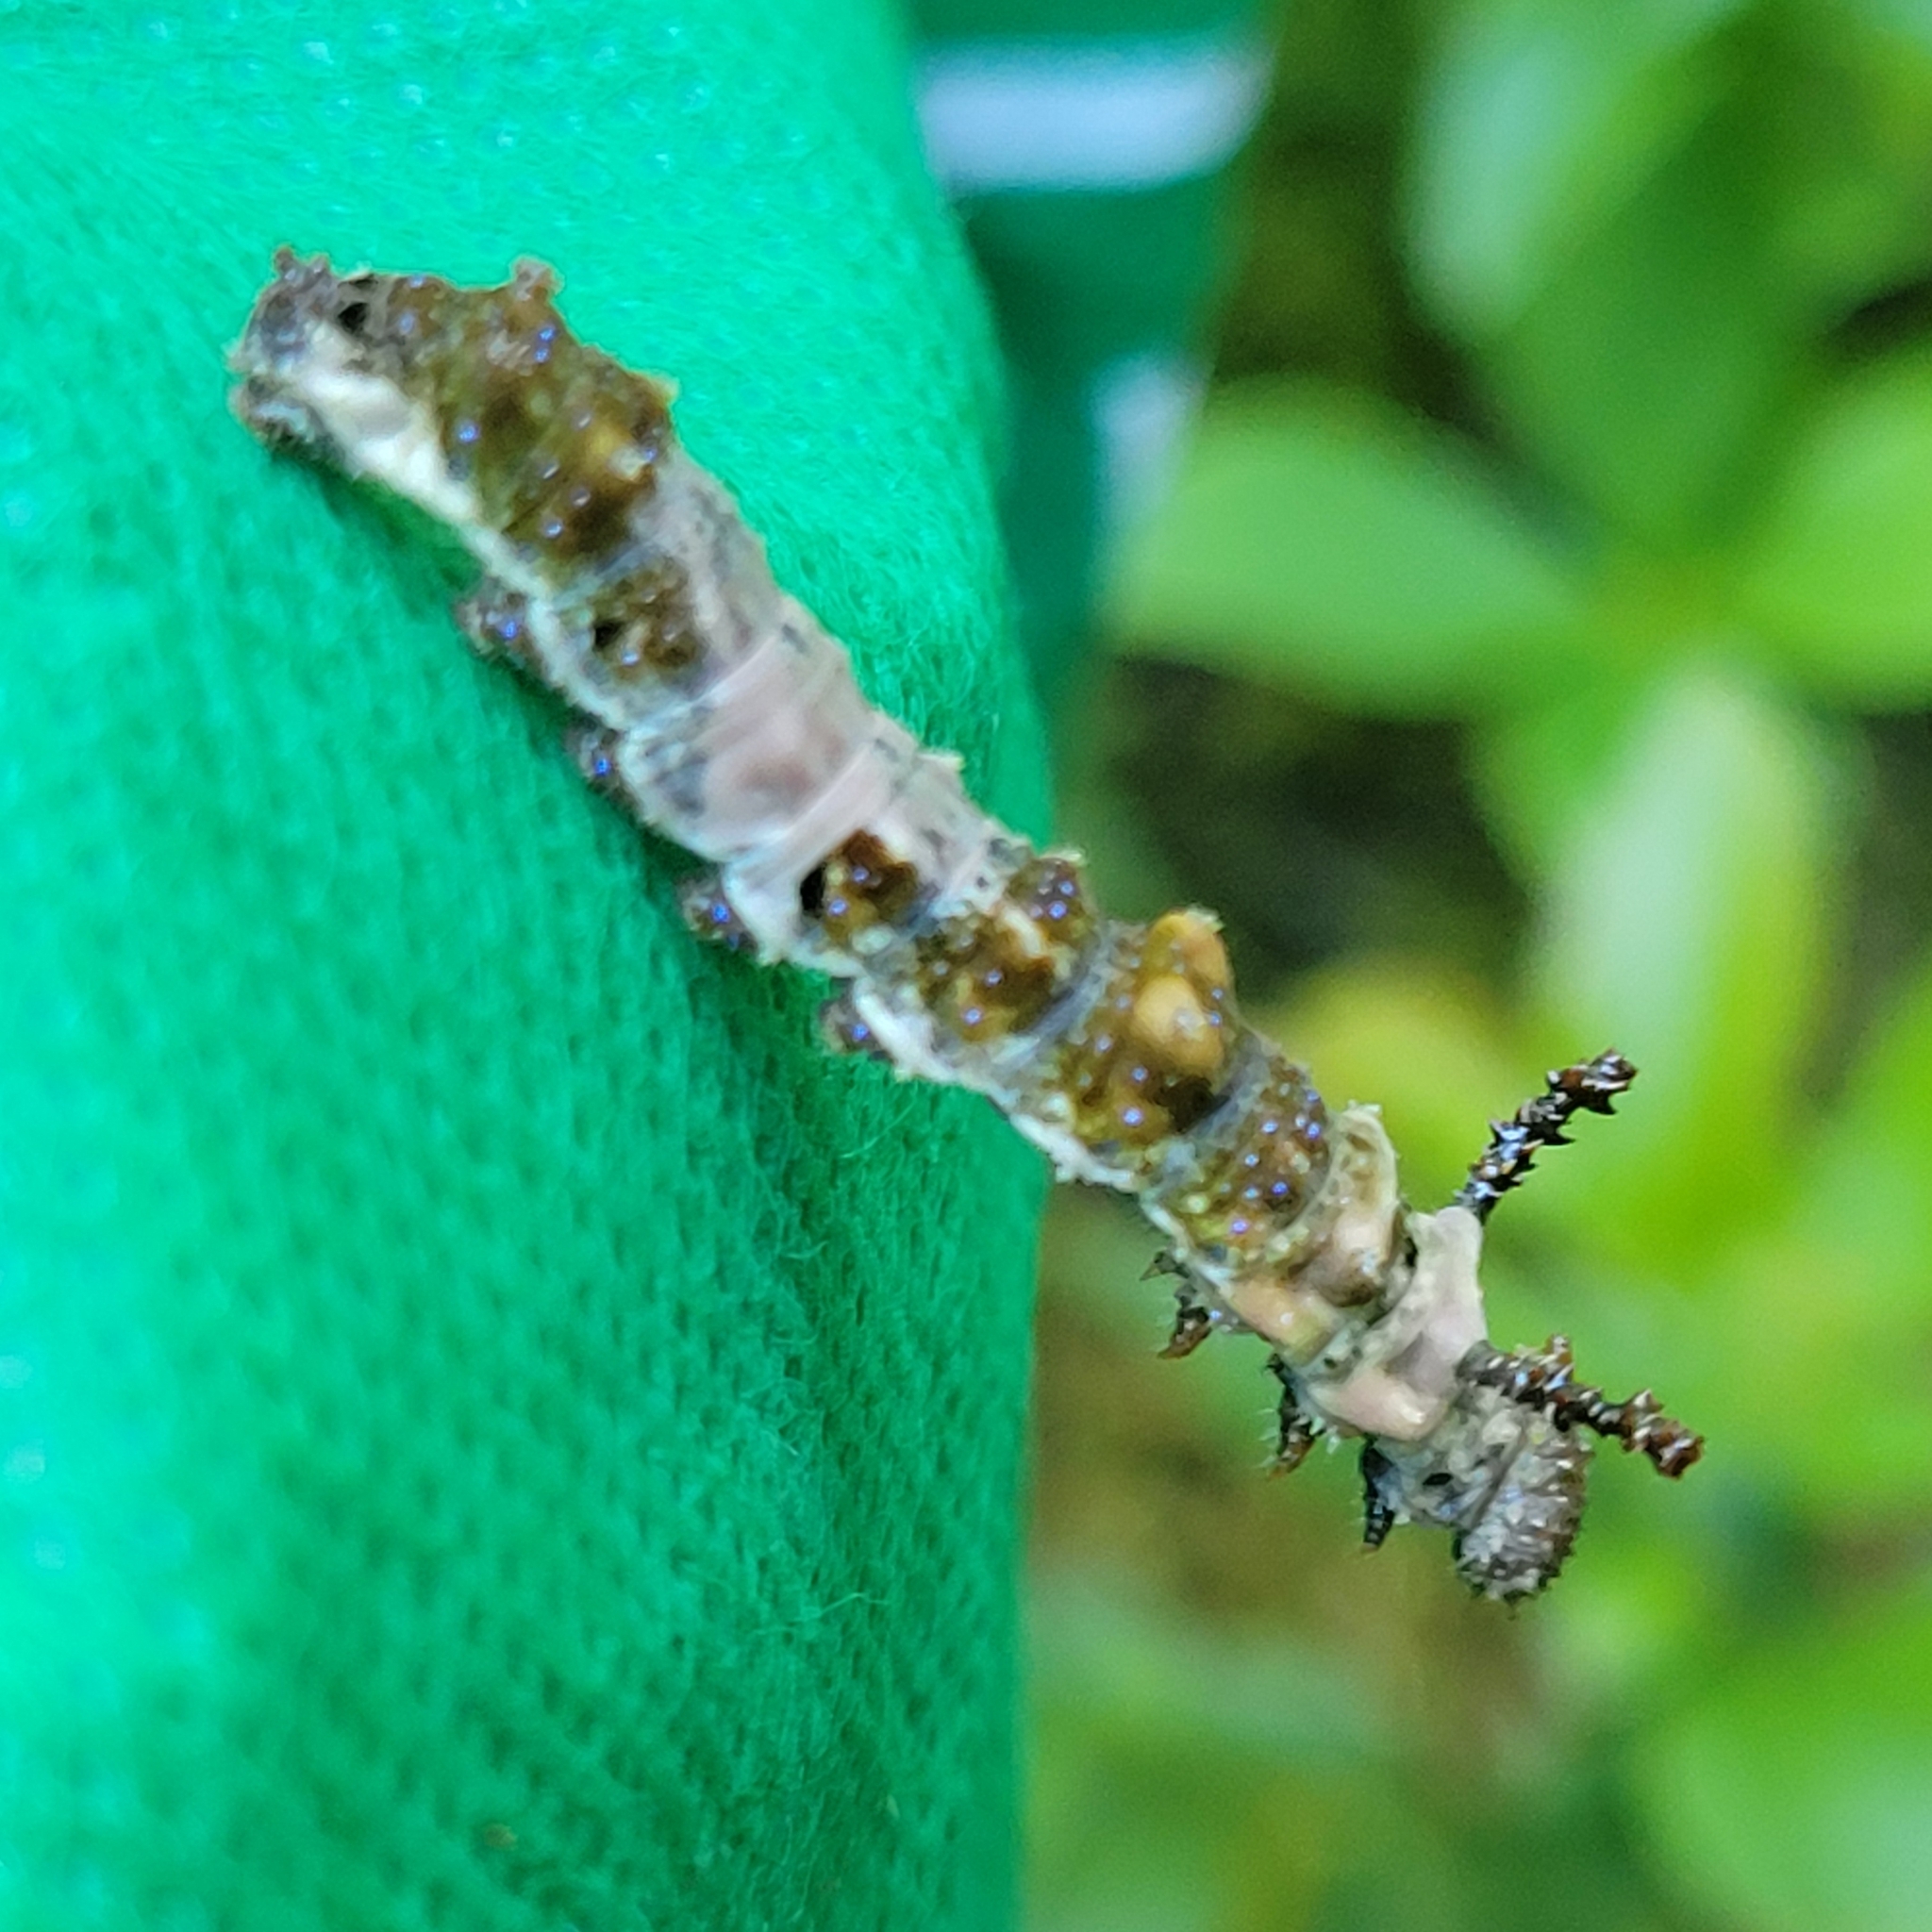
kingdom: Animalia
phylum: Arthropoda
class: Insecta
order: Lepidoptera
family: Nymphalidae
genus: Limenitis
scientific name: Limenitis
